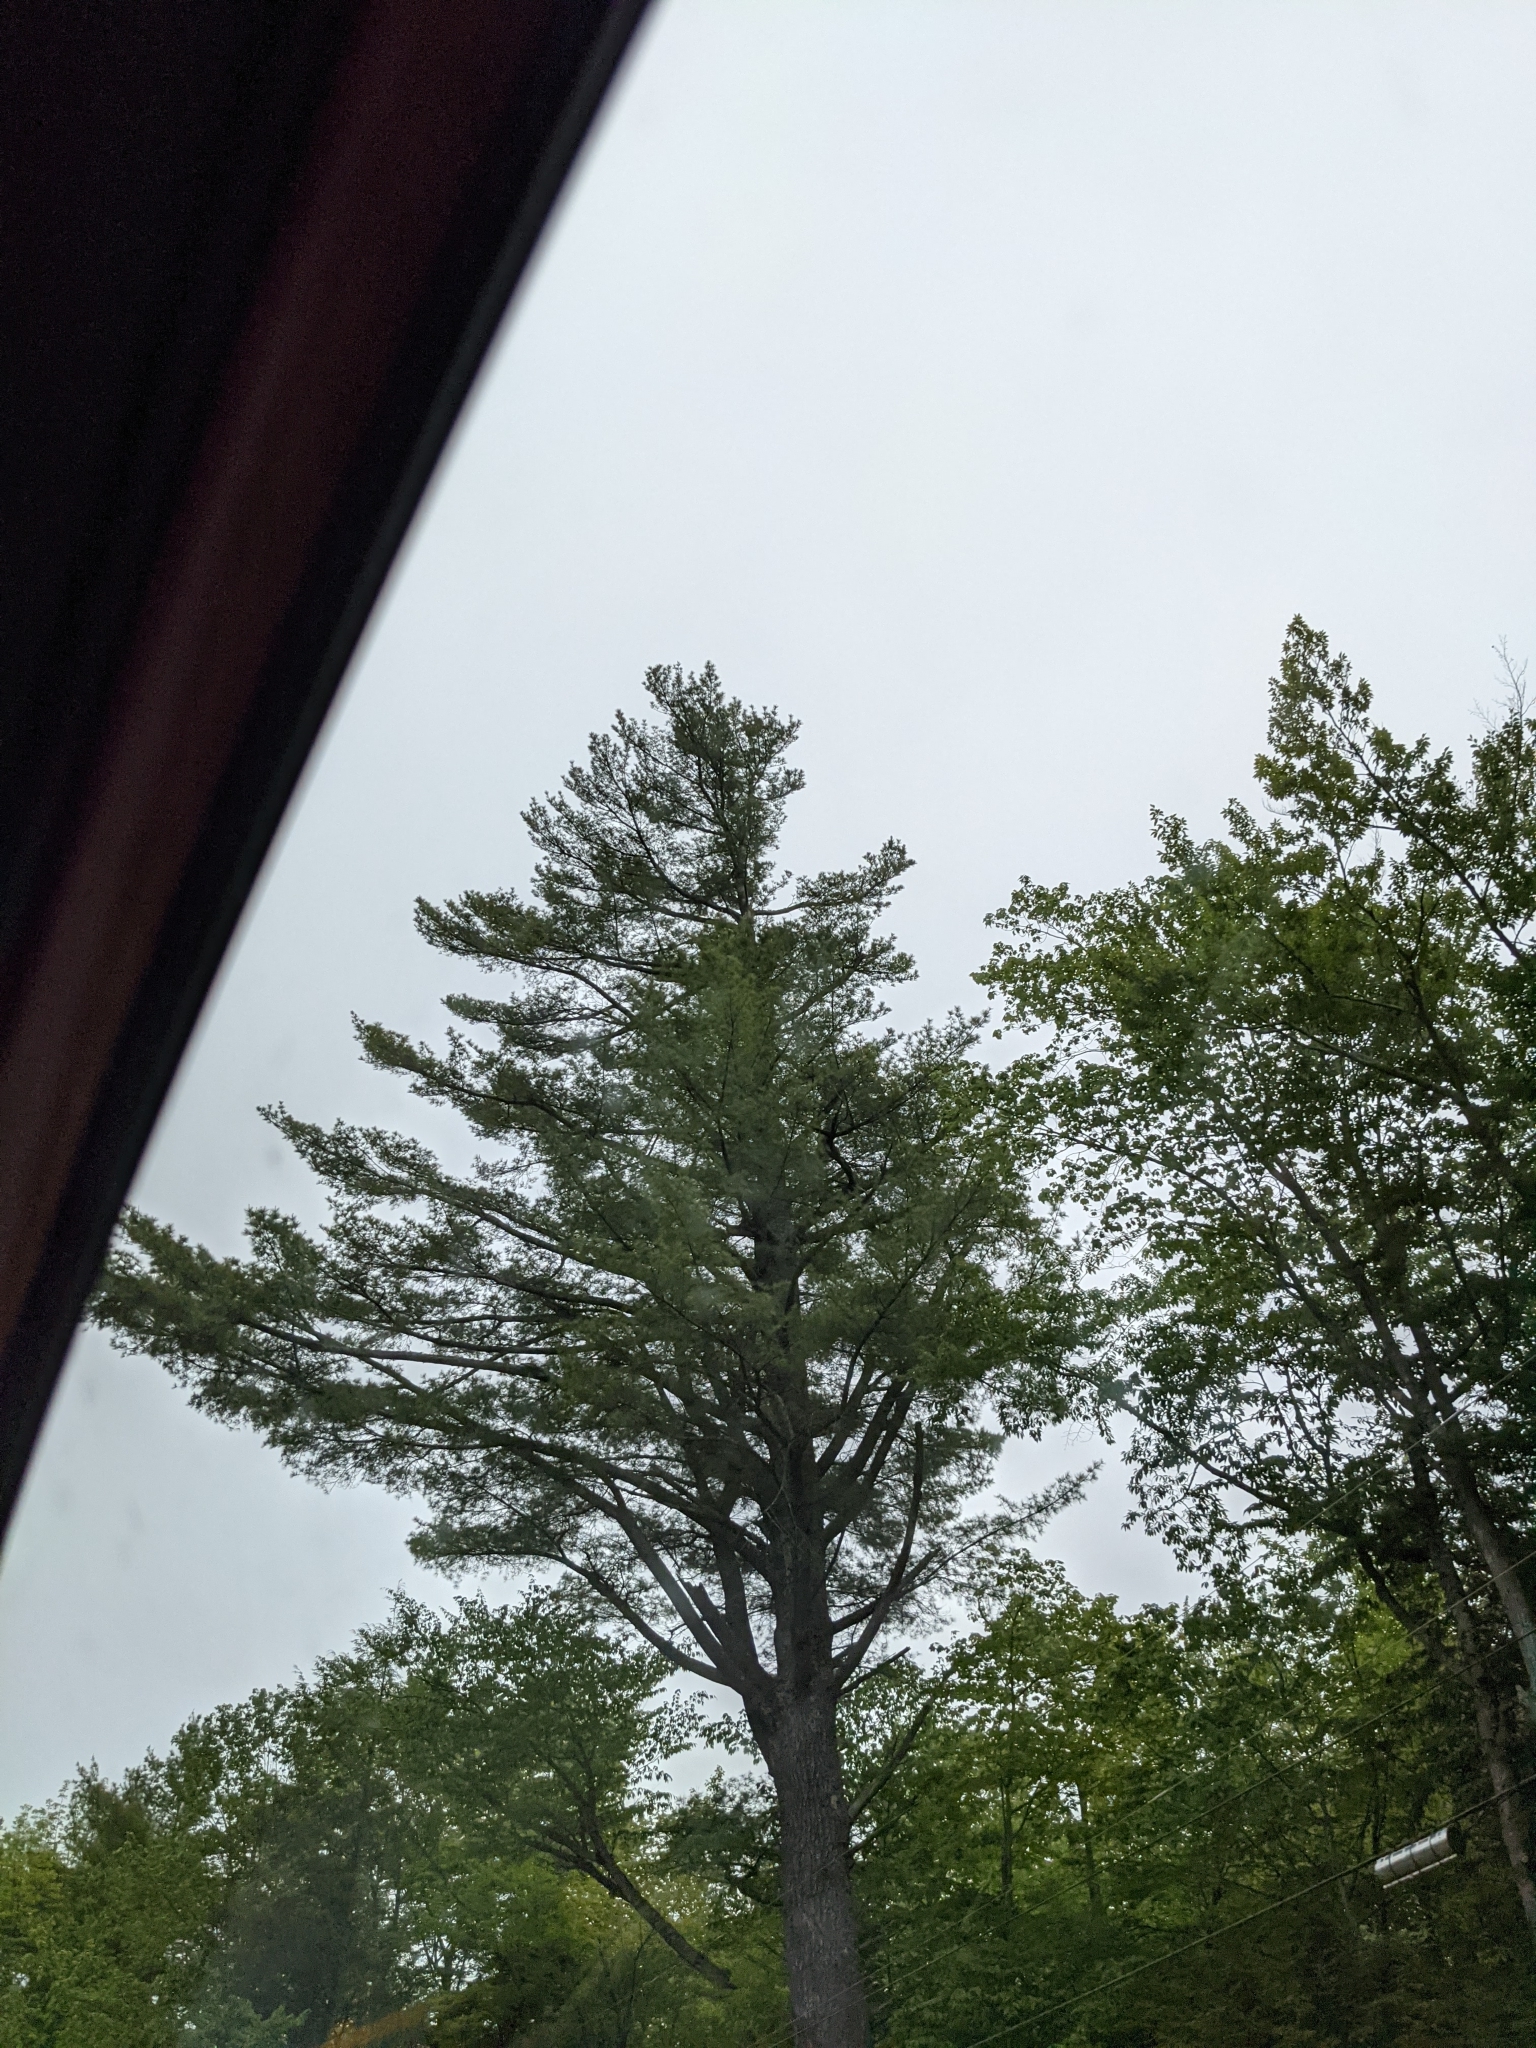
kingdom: Plantae
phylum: Tracheophyta
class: Pinopsida
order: Pinales
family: Pinaceae
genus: Pinus
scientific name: Pinus strobus
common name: Weymouth pine
